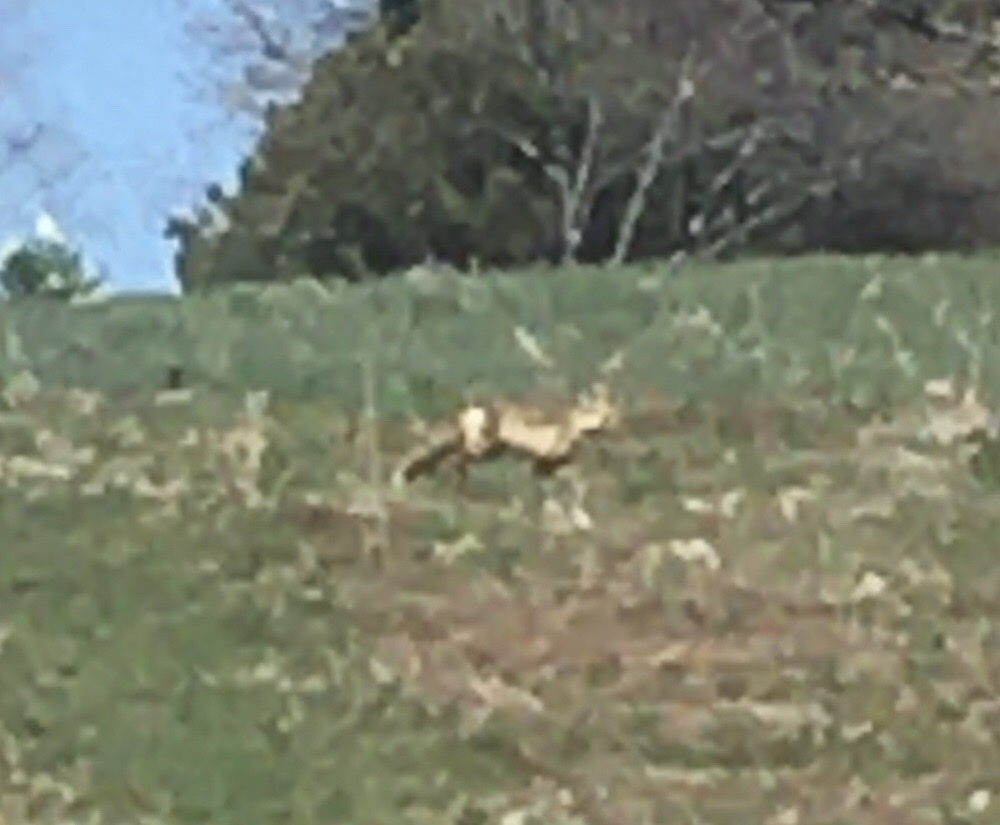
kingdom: Animalia
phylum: Chordata
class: Mammalia
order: Carnivora
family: Canidae
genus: Vulpes
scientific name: Vulpes vulpes
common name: Red fox
